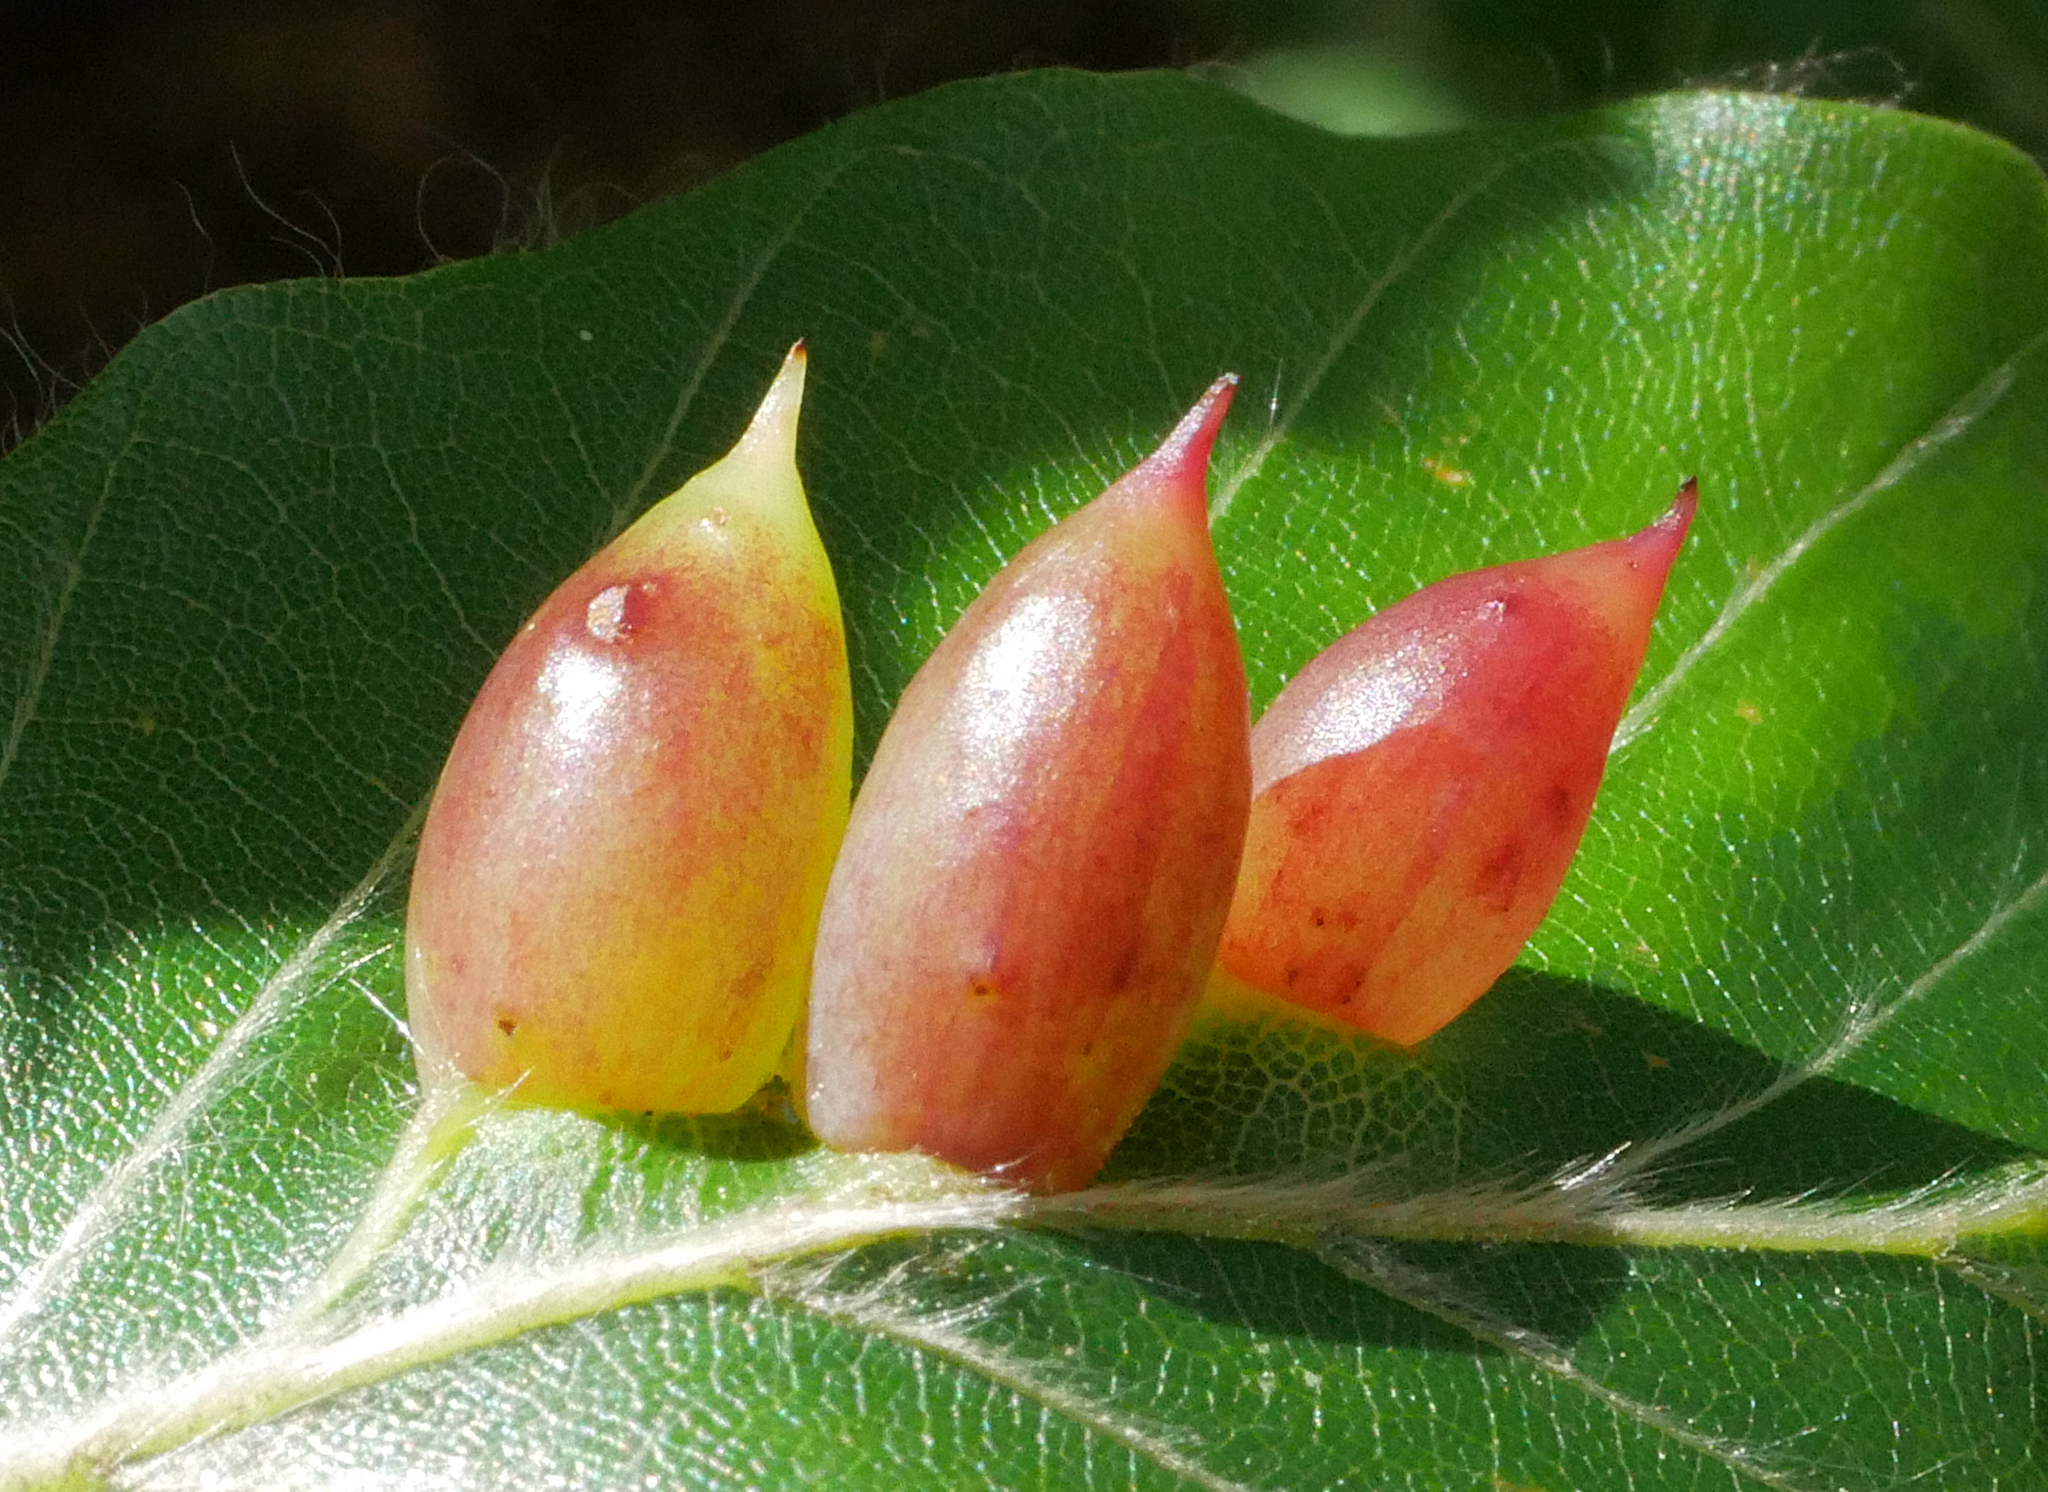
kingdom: Animalia
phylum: Arthropoda
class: Insecta
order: Diptera
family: Cecidomyiidae
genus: Mikiola
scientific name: Mikiola fagi
